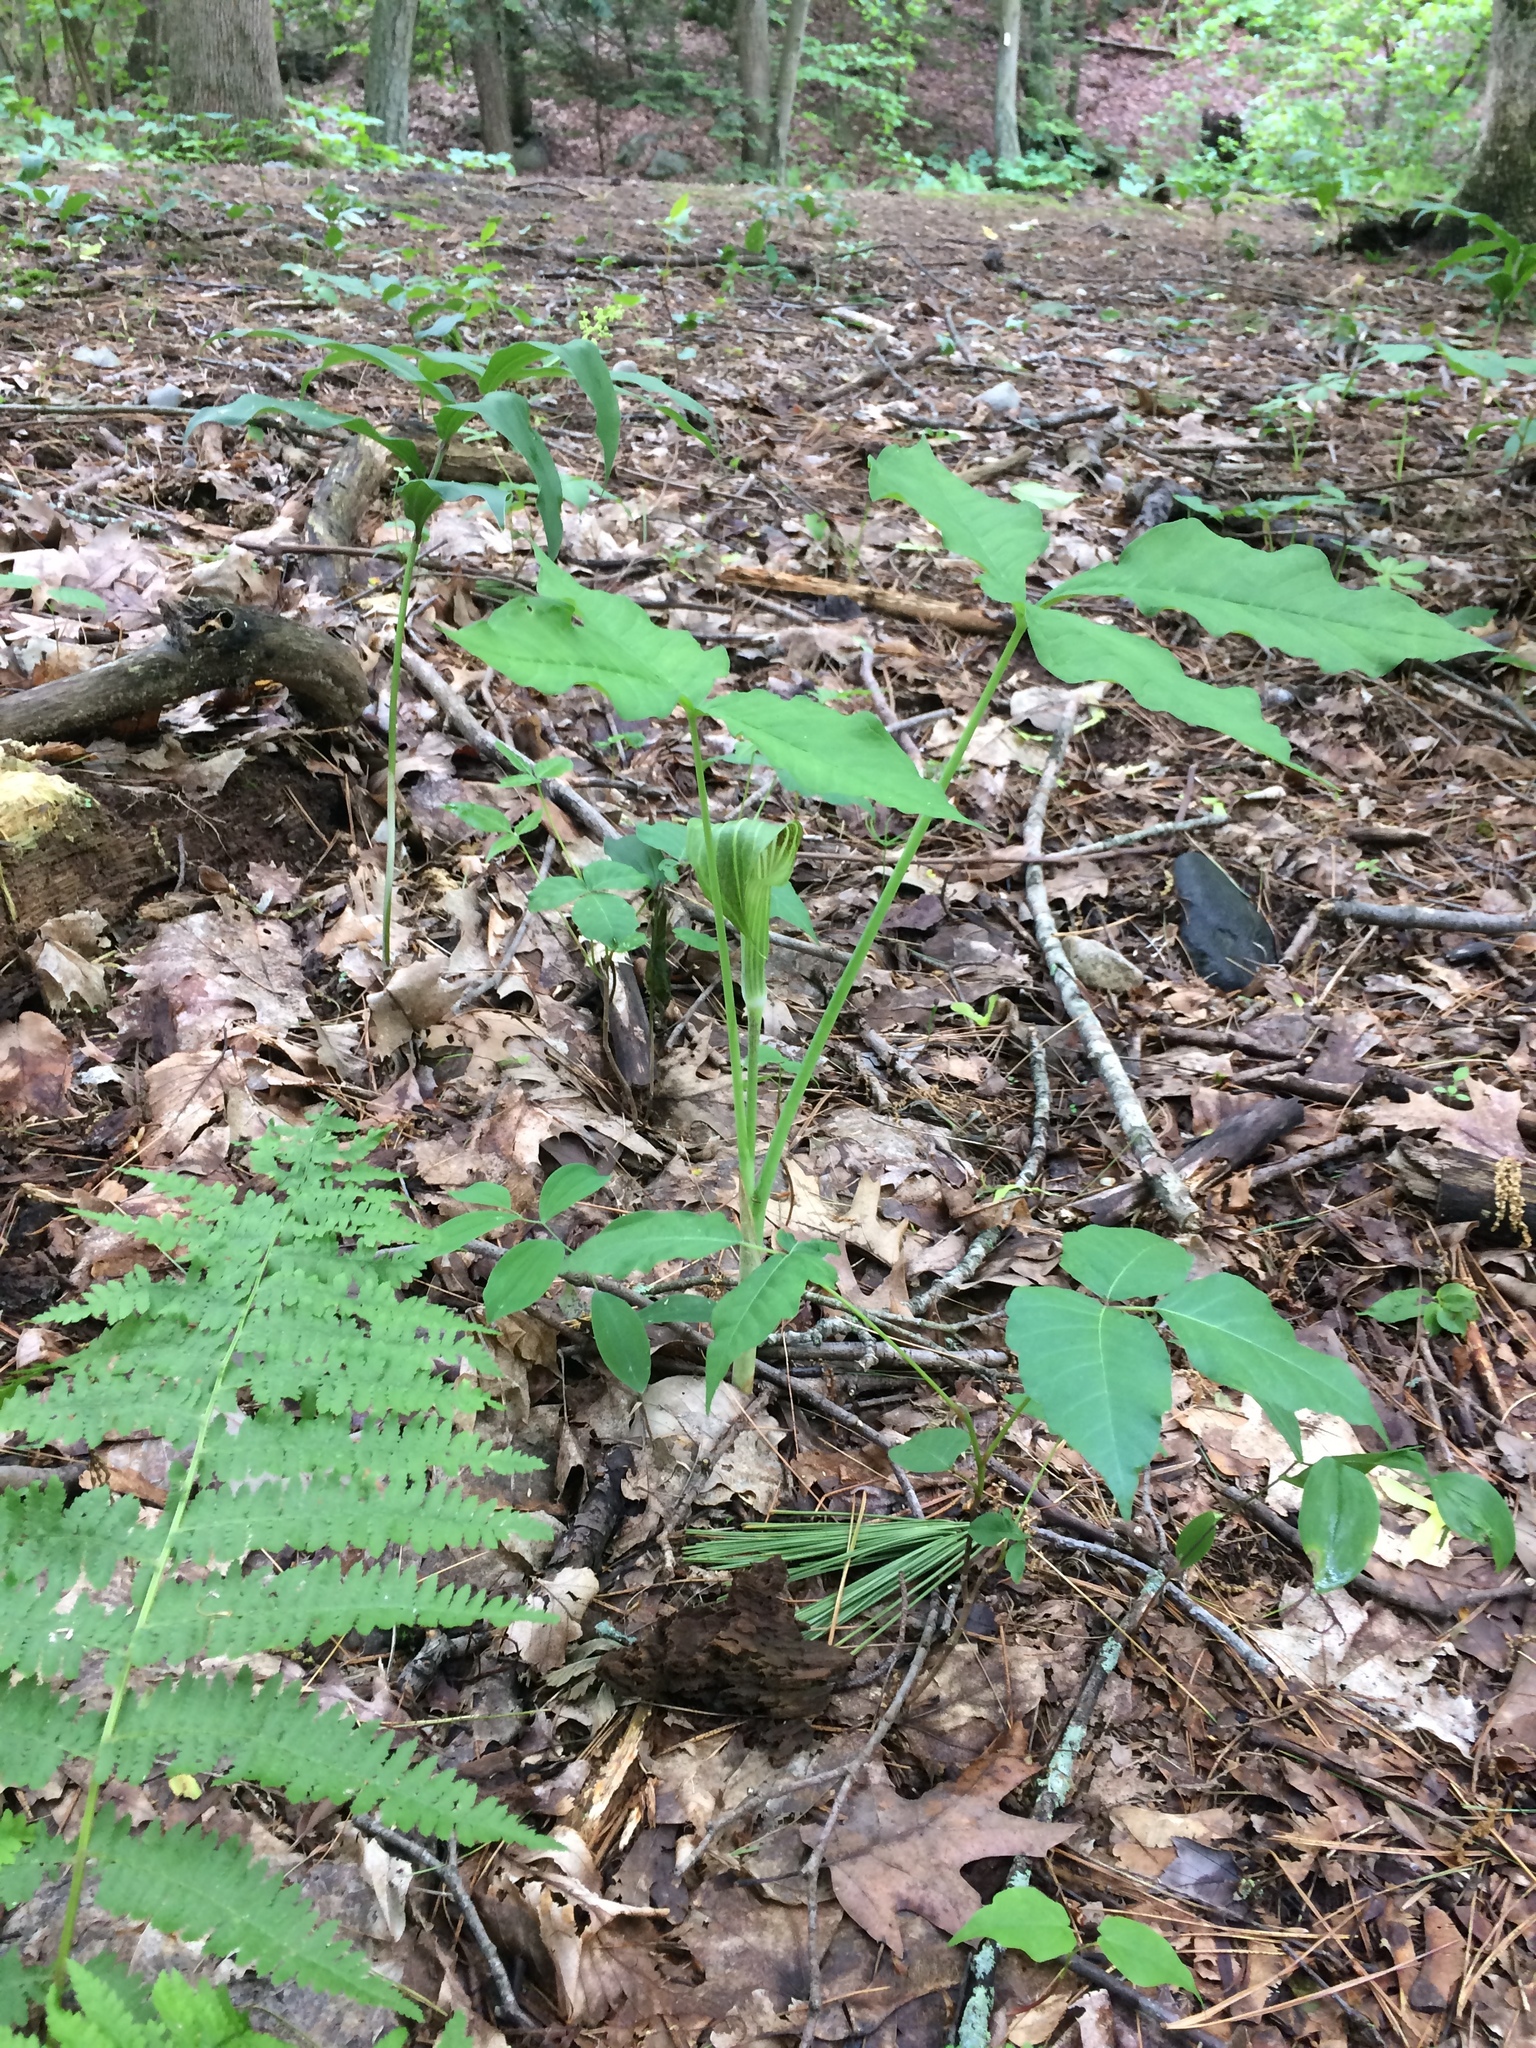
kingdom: Plantae
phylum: Tracheophyta
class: Liliopsida
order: Alismatales
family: Araceae
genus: Arisaema
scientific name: Arisaema triphyllum
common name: Jack-in-the-pulpit
